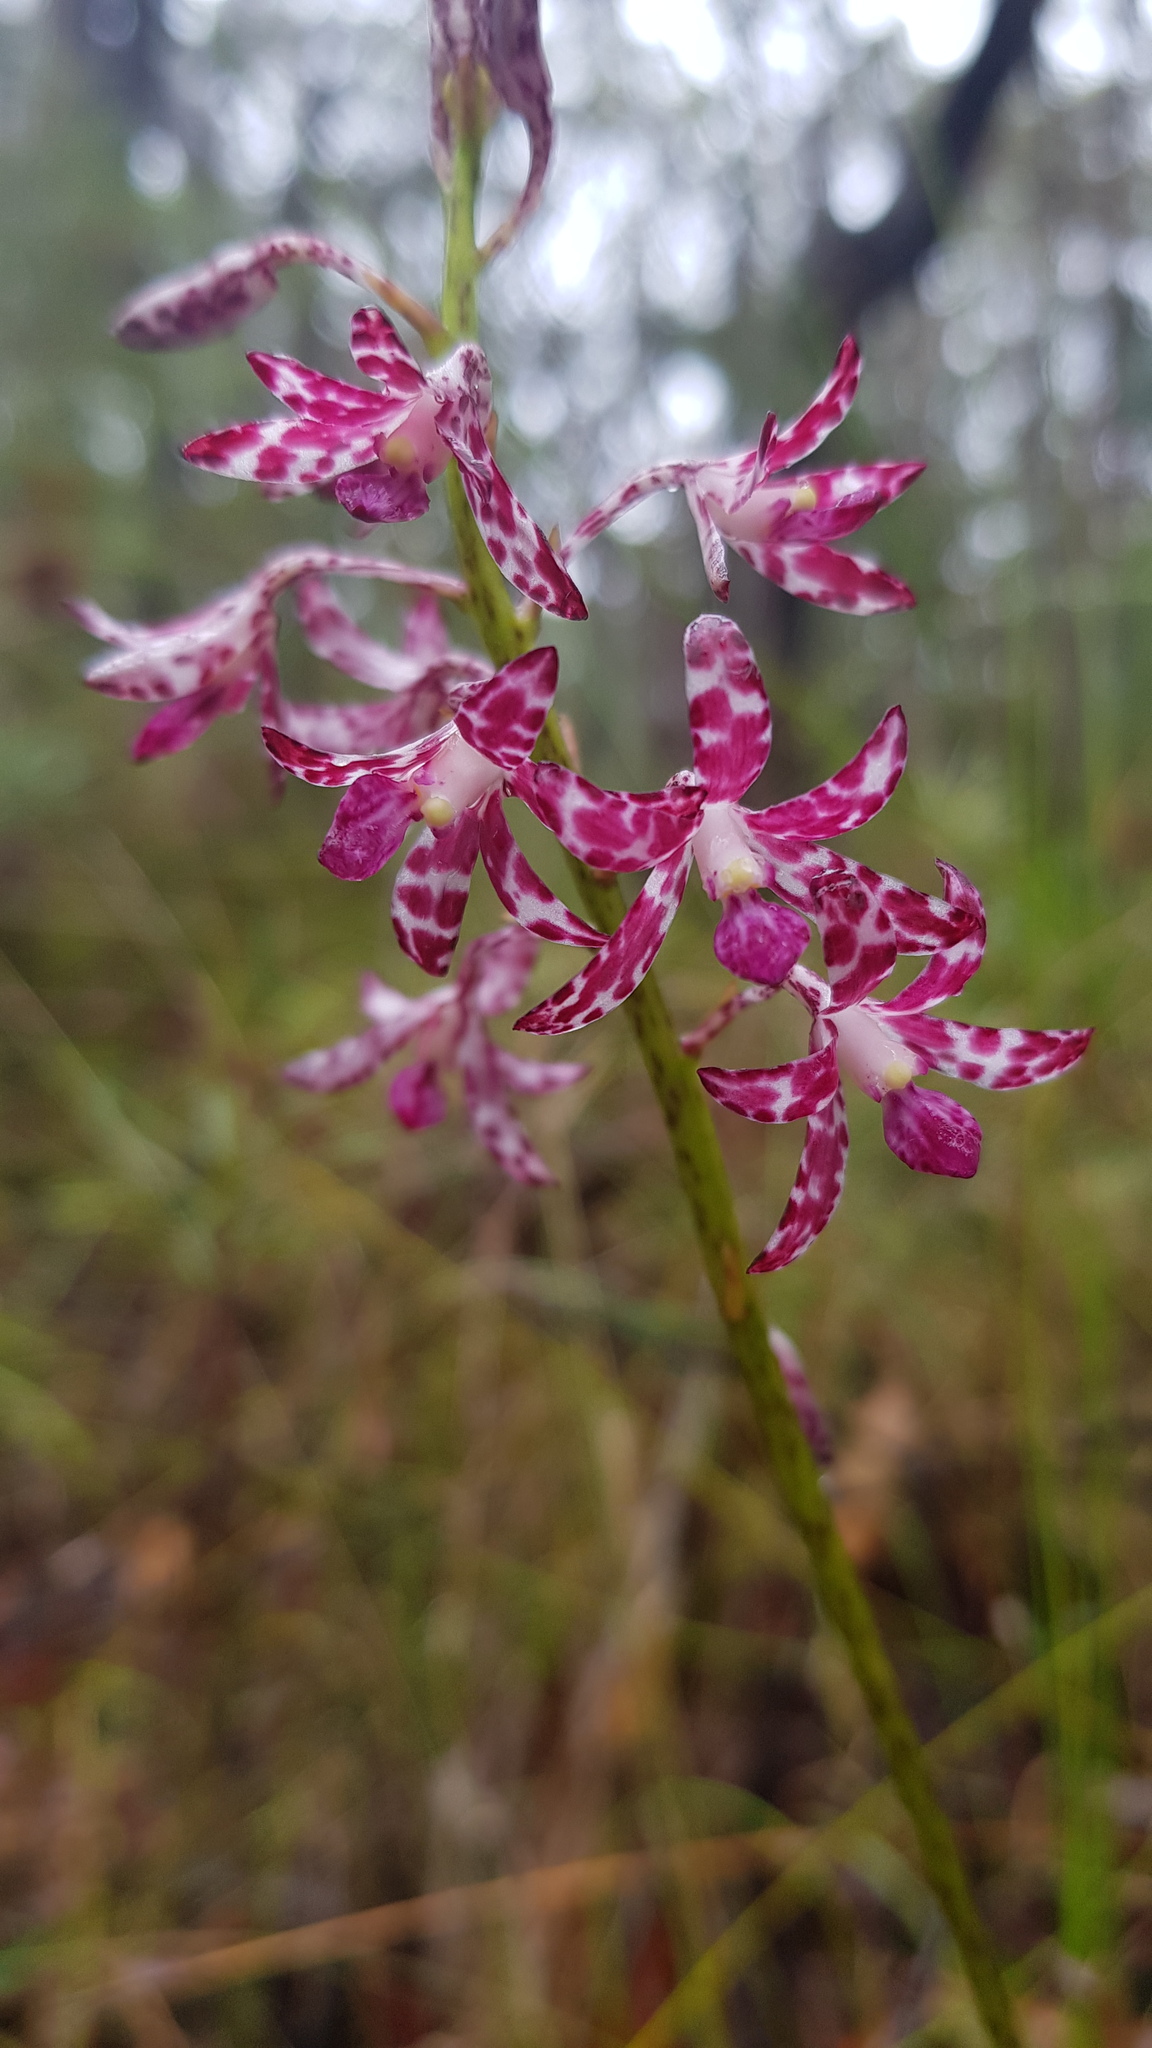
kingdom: Plantae
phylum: Tracheophyta
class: Liliopsida
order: Asparagales
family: Orchidaceae
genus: Dipodium
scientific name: Dipodium variegatum
